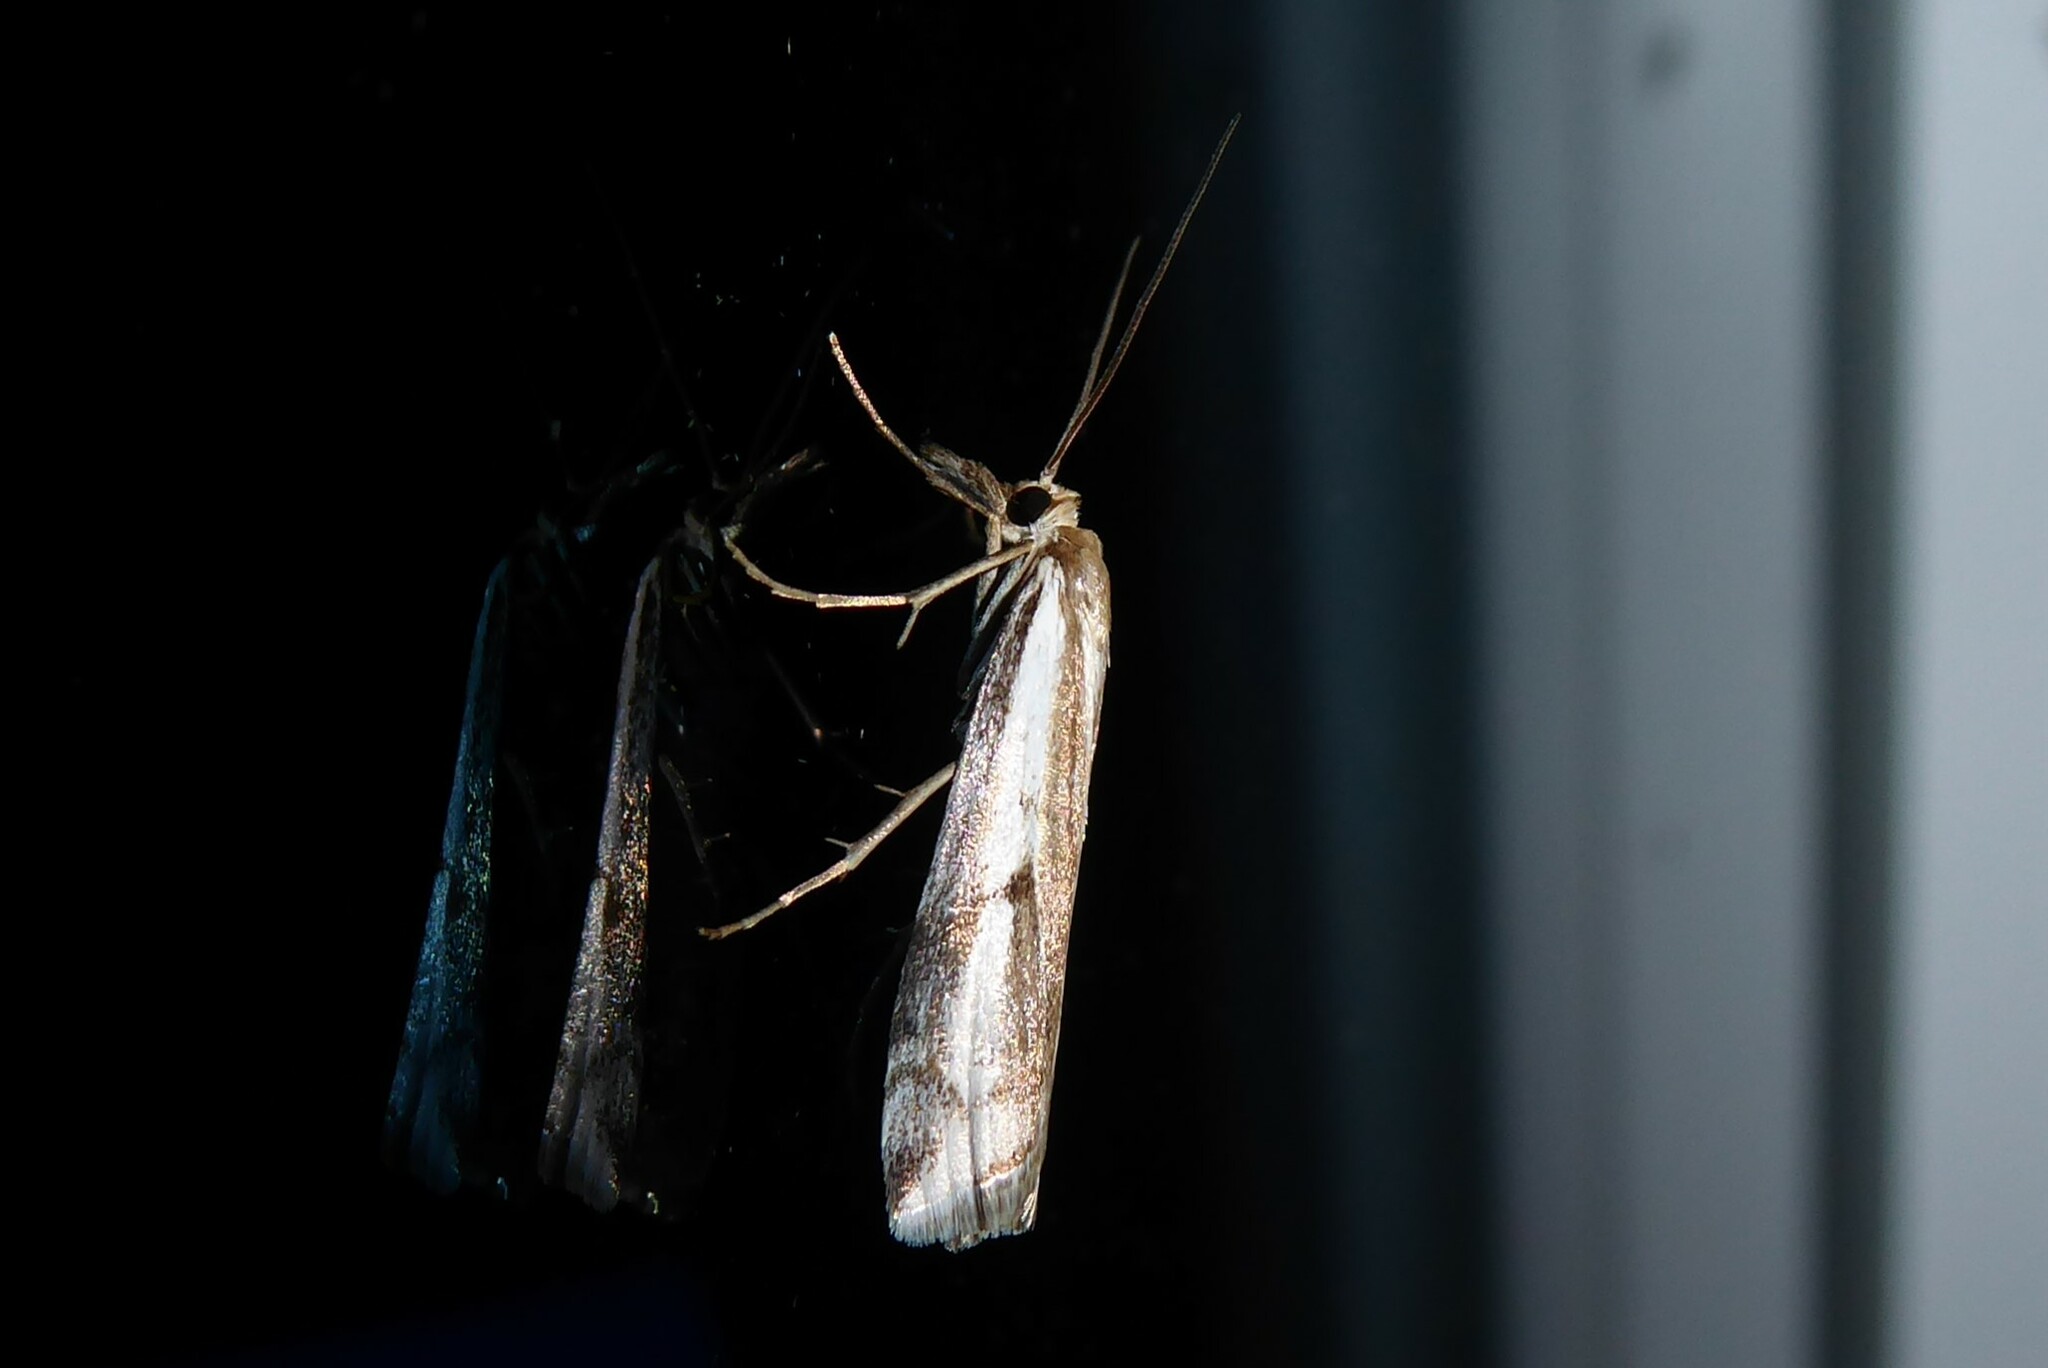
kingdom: Animalia
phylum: Arthropoda
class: Insecta
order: Lepidoptera
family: Crambidae
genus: Orocrambus
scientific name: Orocrambus vulgaris
